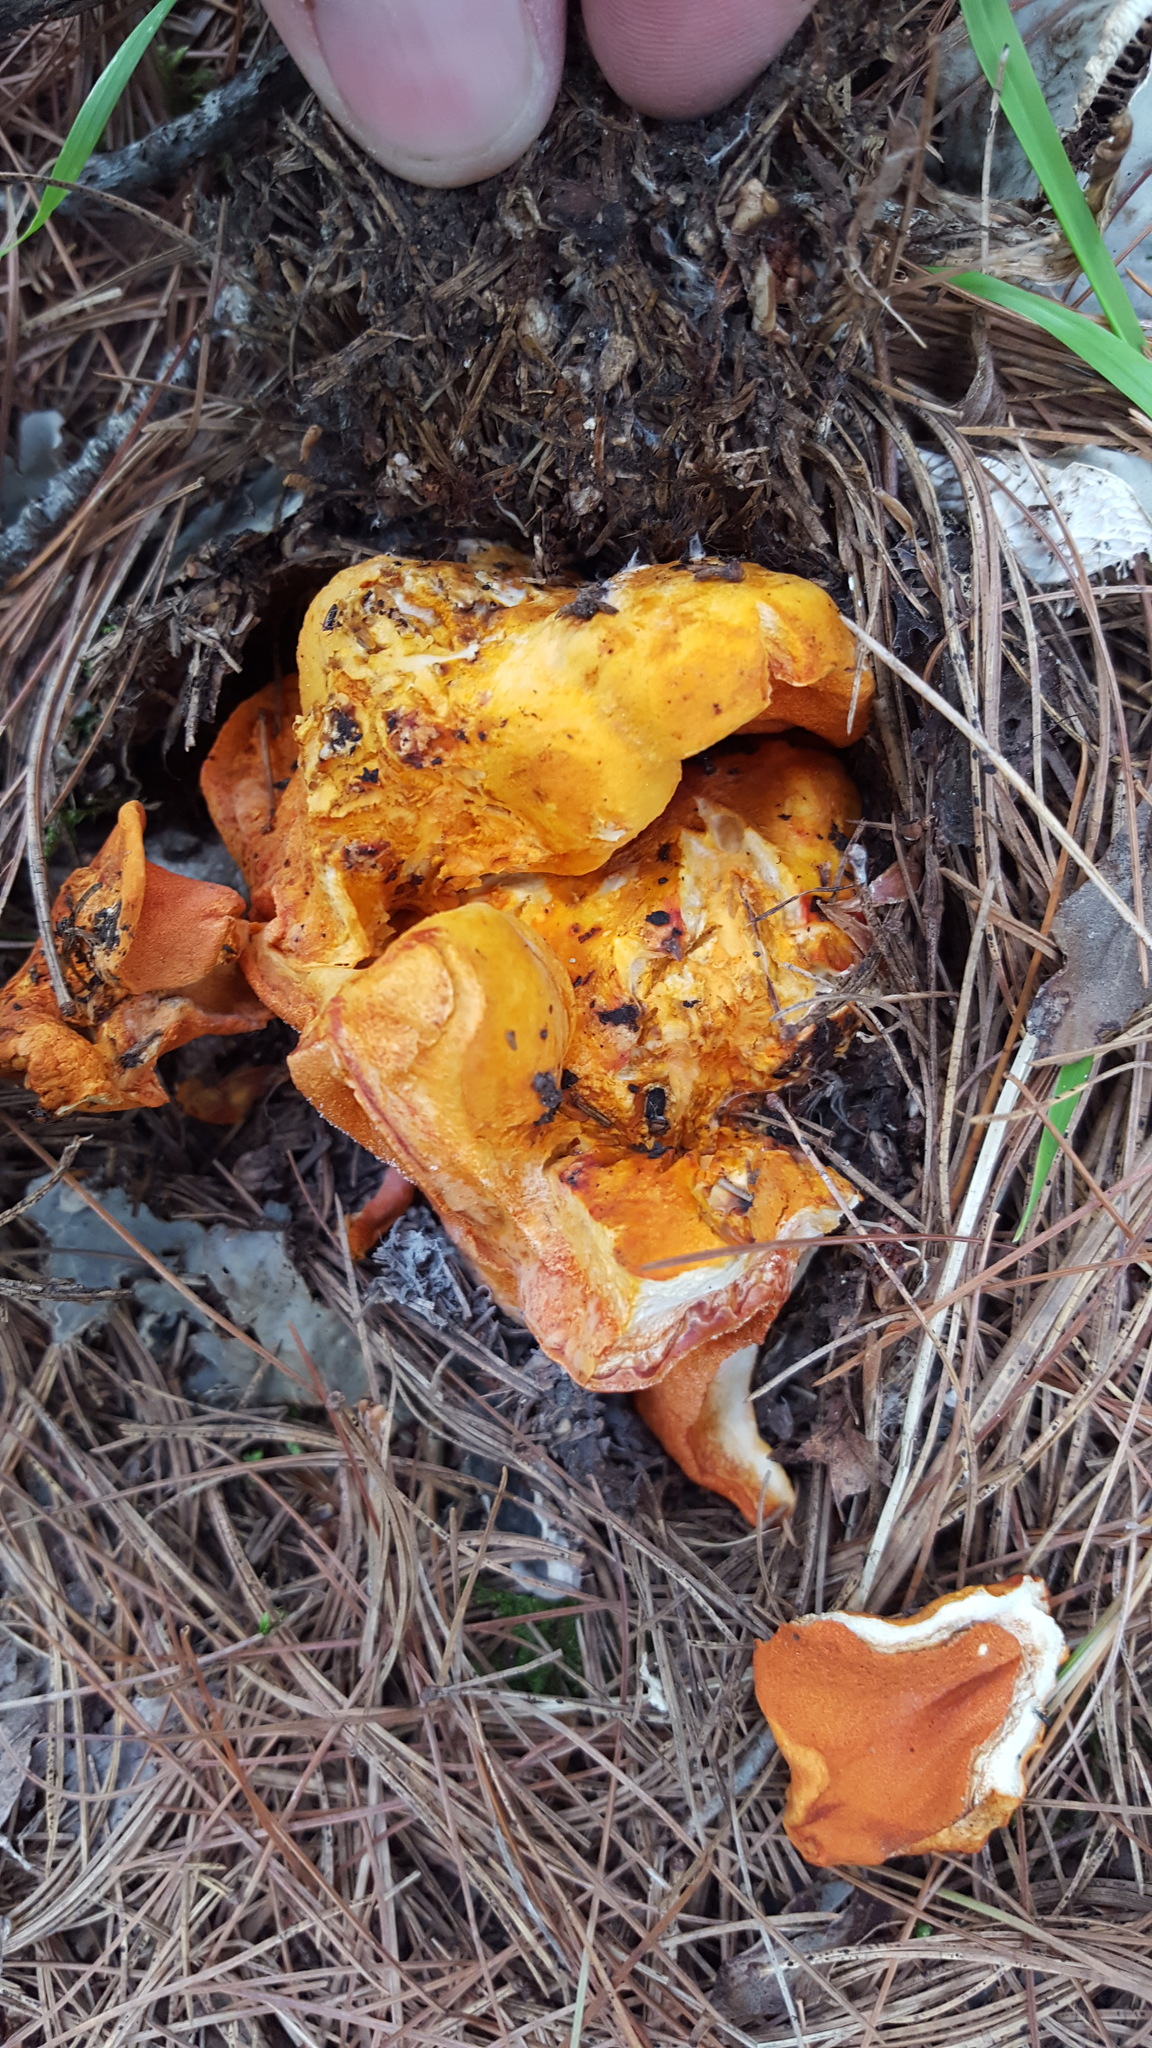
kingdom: Fungi
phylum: Ascomycota
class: Sordariomycetes
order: Hypocreales
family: Hypocreaceae
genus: Hypomyces
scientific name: Hypomyces lactifluorum
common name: Lobster mushroom
